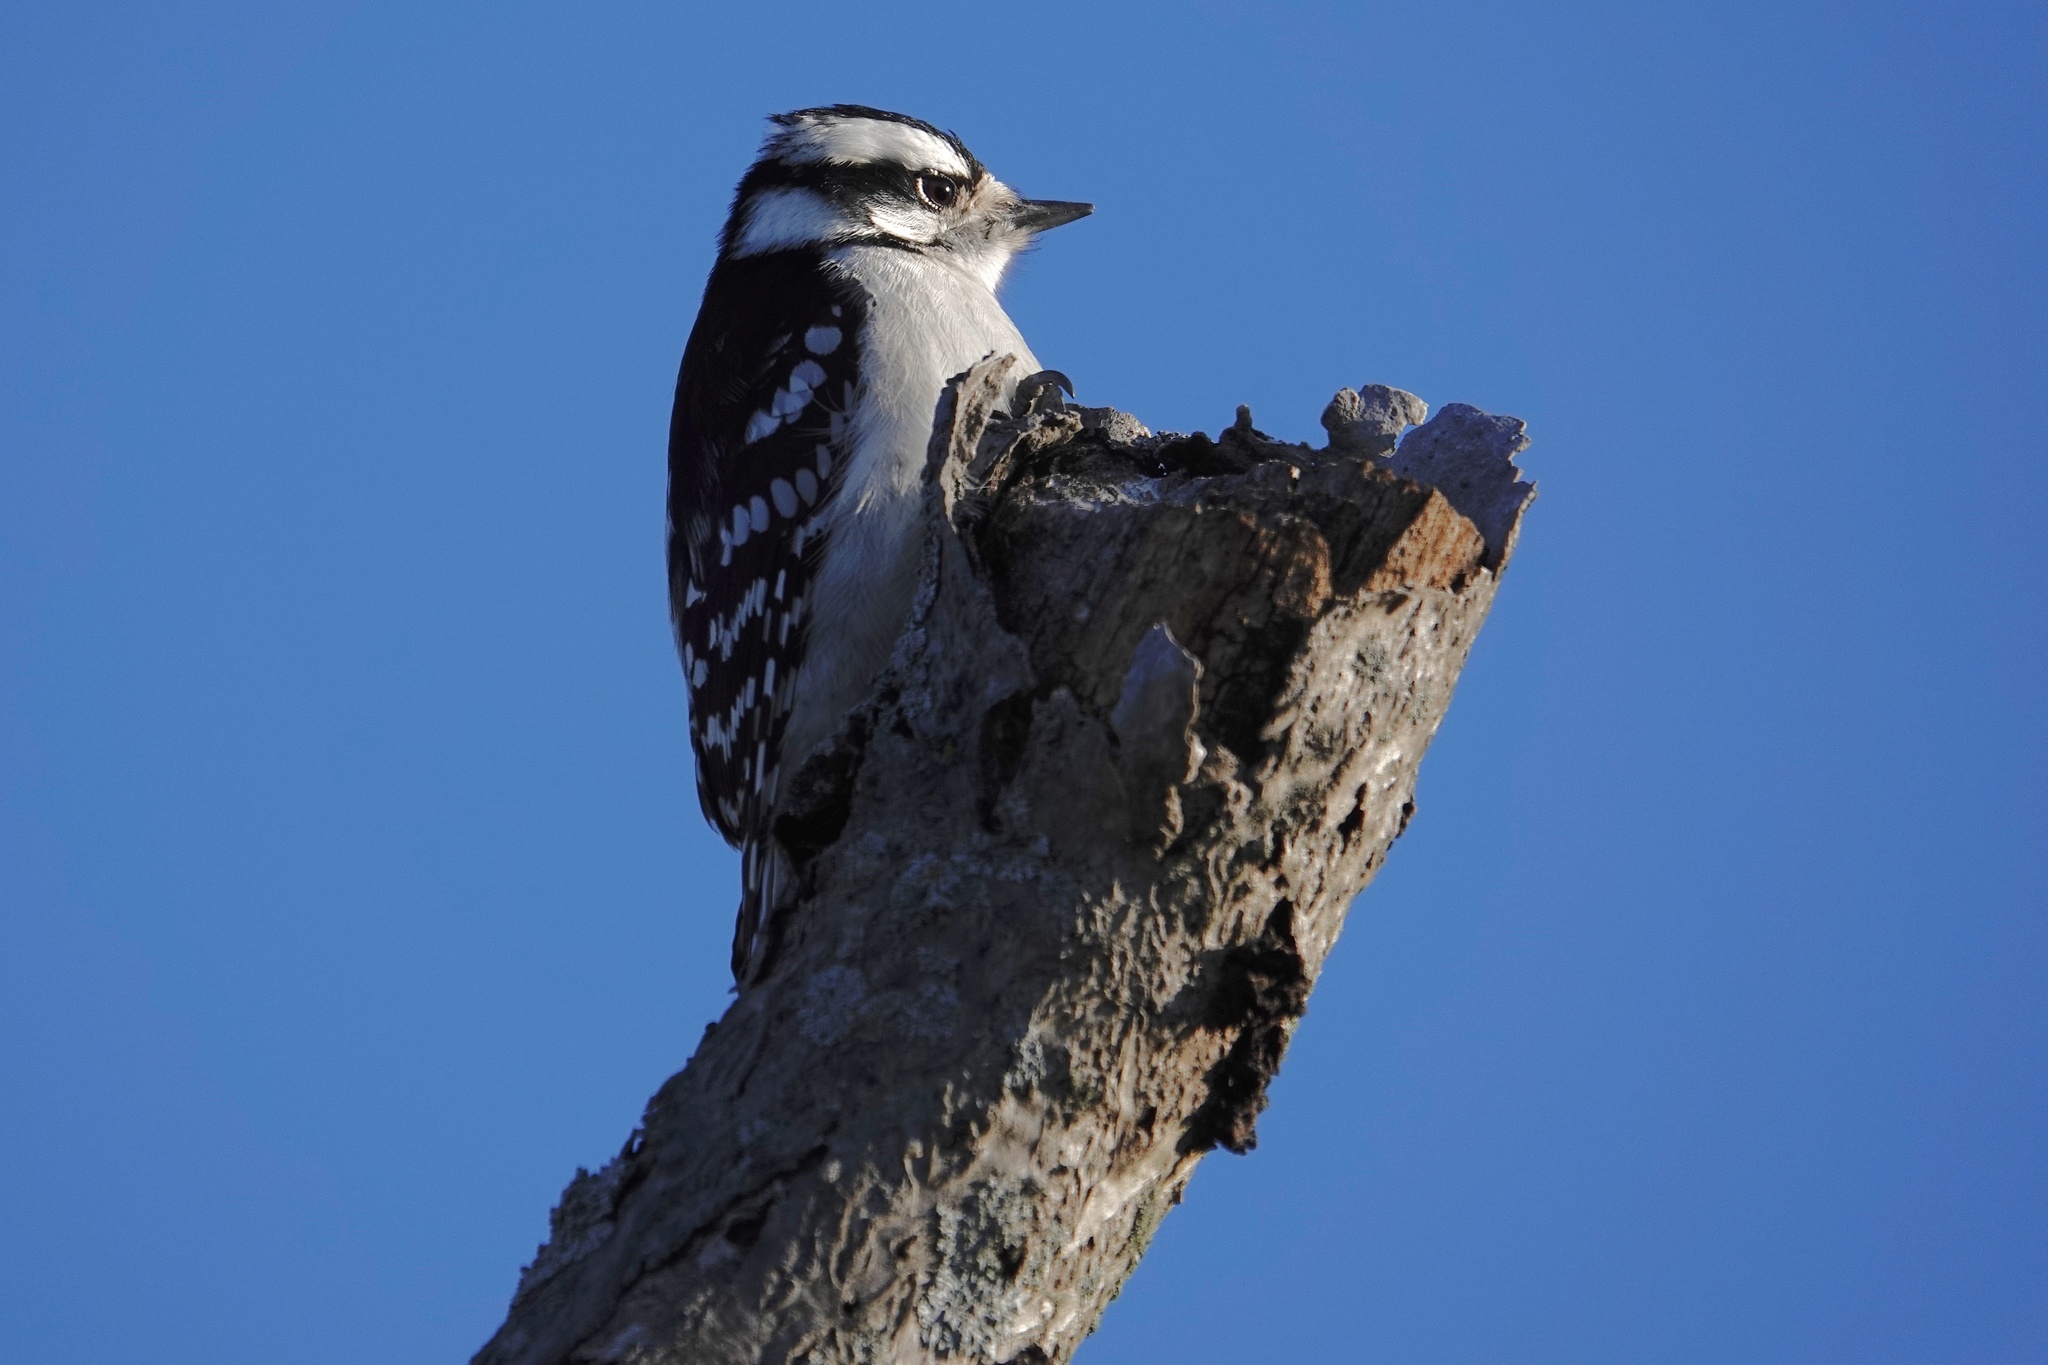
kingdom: Animalia
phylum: Chordata
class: Aves
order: Piciformes
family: Picidae
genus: Dryobates
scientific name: Dryobates pubescens
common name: Downy woodpecker
